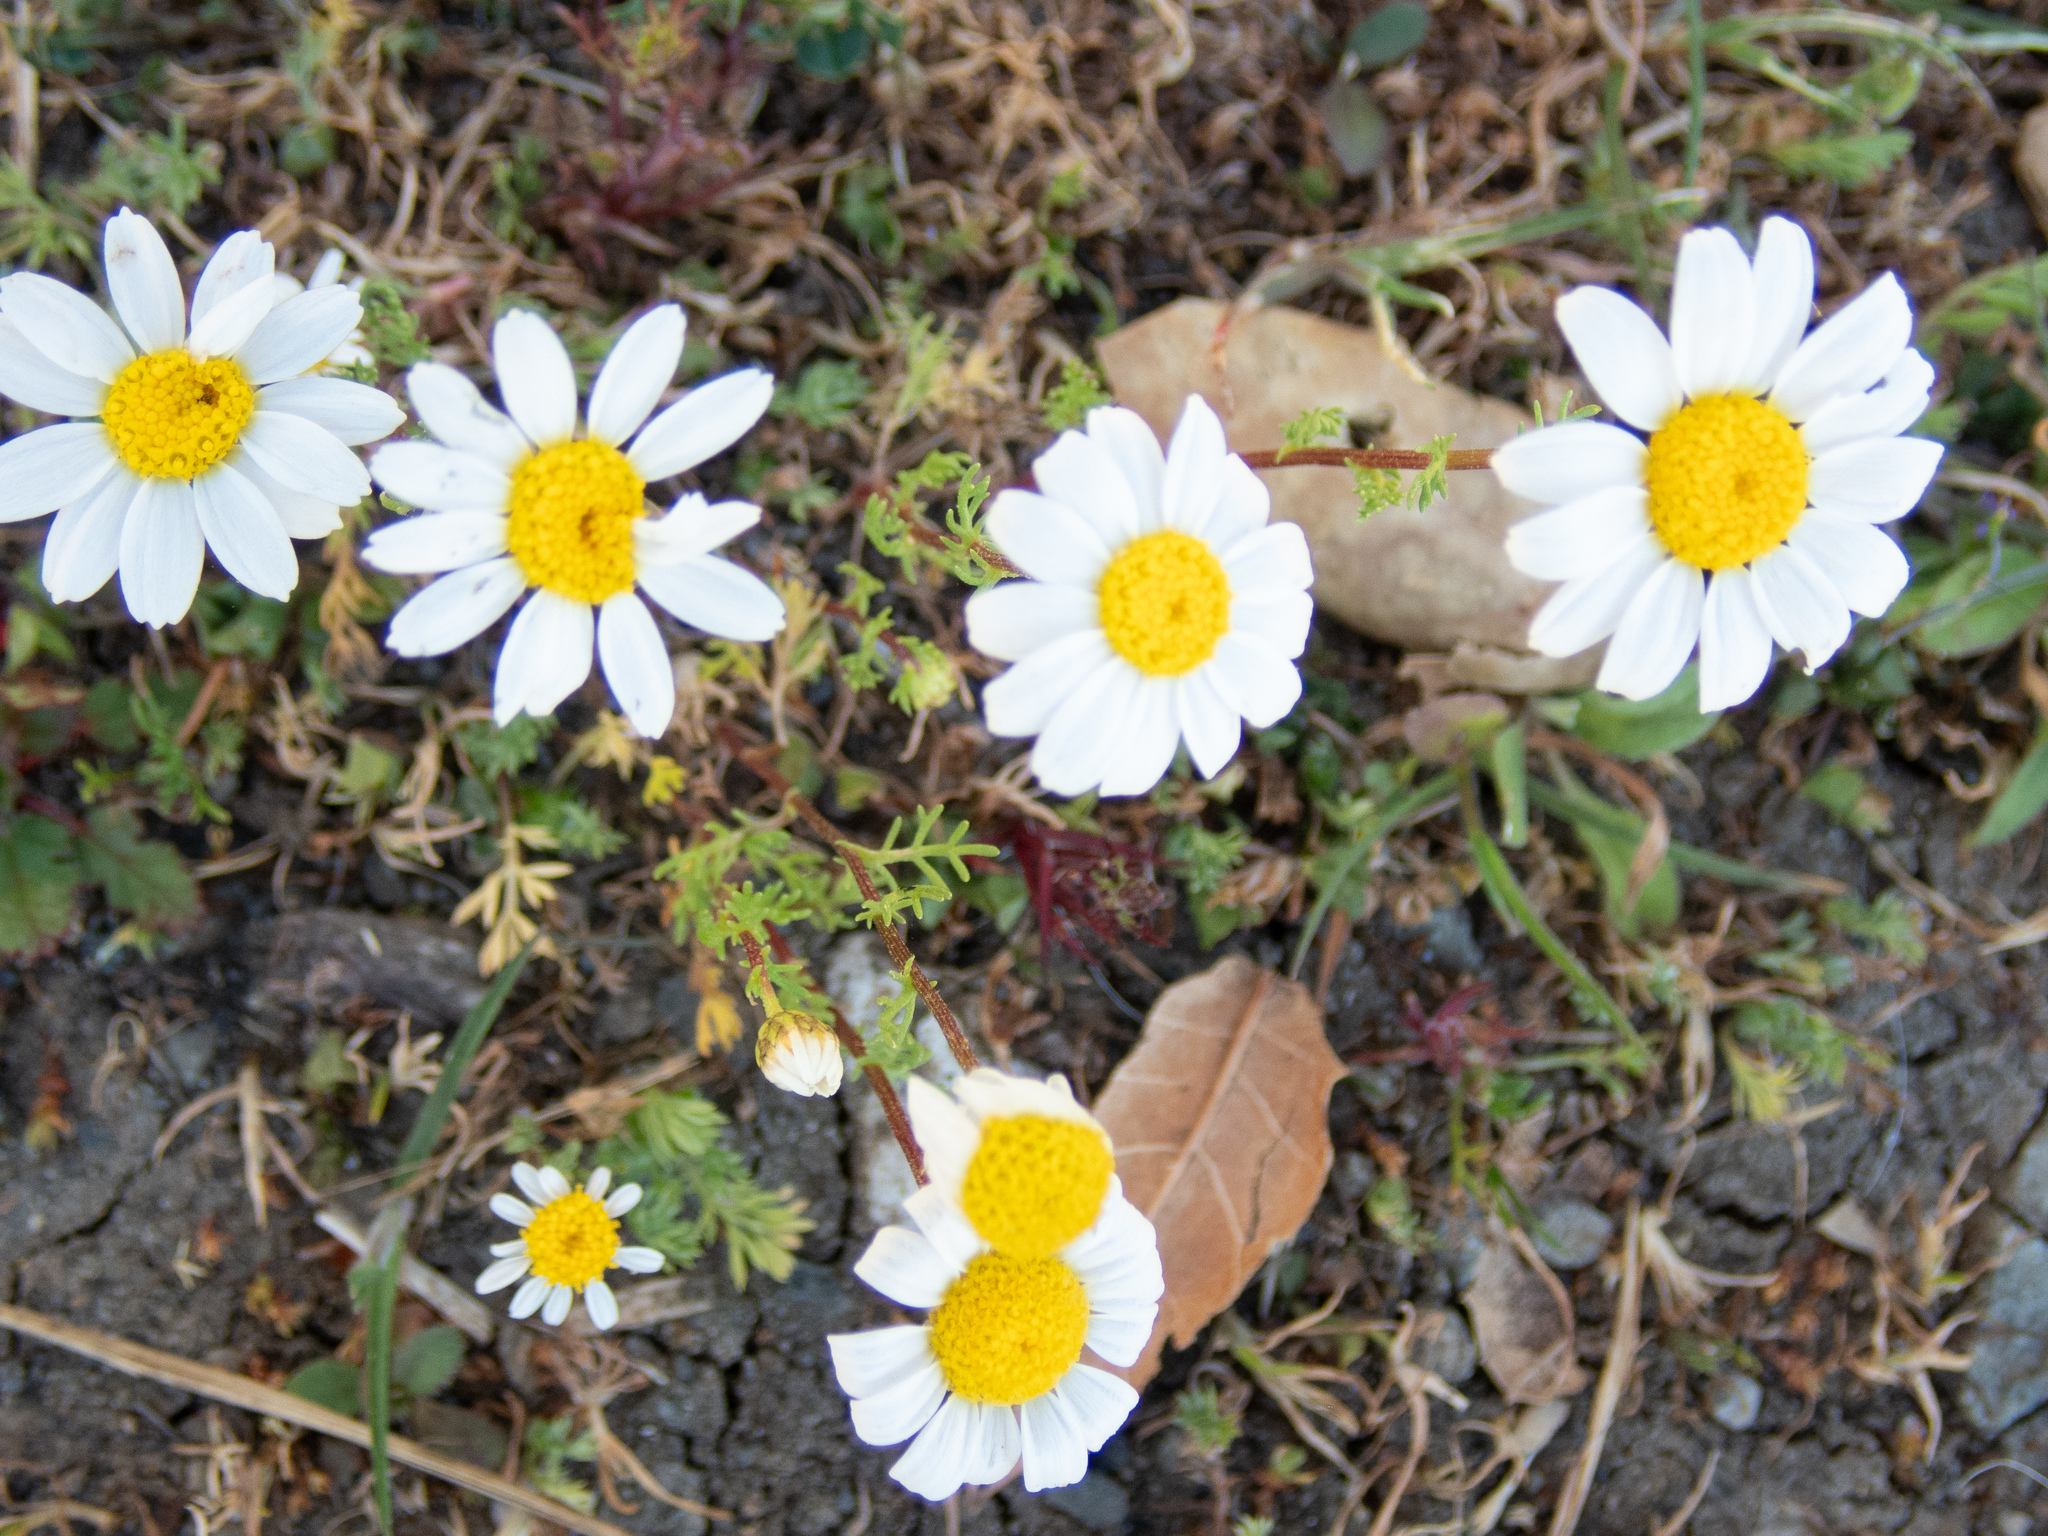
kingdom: Plantae
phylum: Tracheophyta
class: Magnoliopsida
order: Asterales
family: Asteraceae
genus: Anthemis
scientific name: Anthemis cotula
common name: Stinking chamomile
